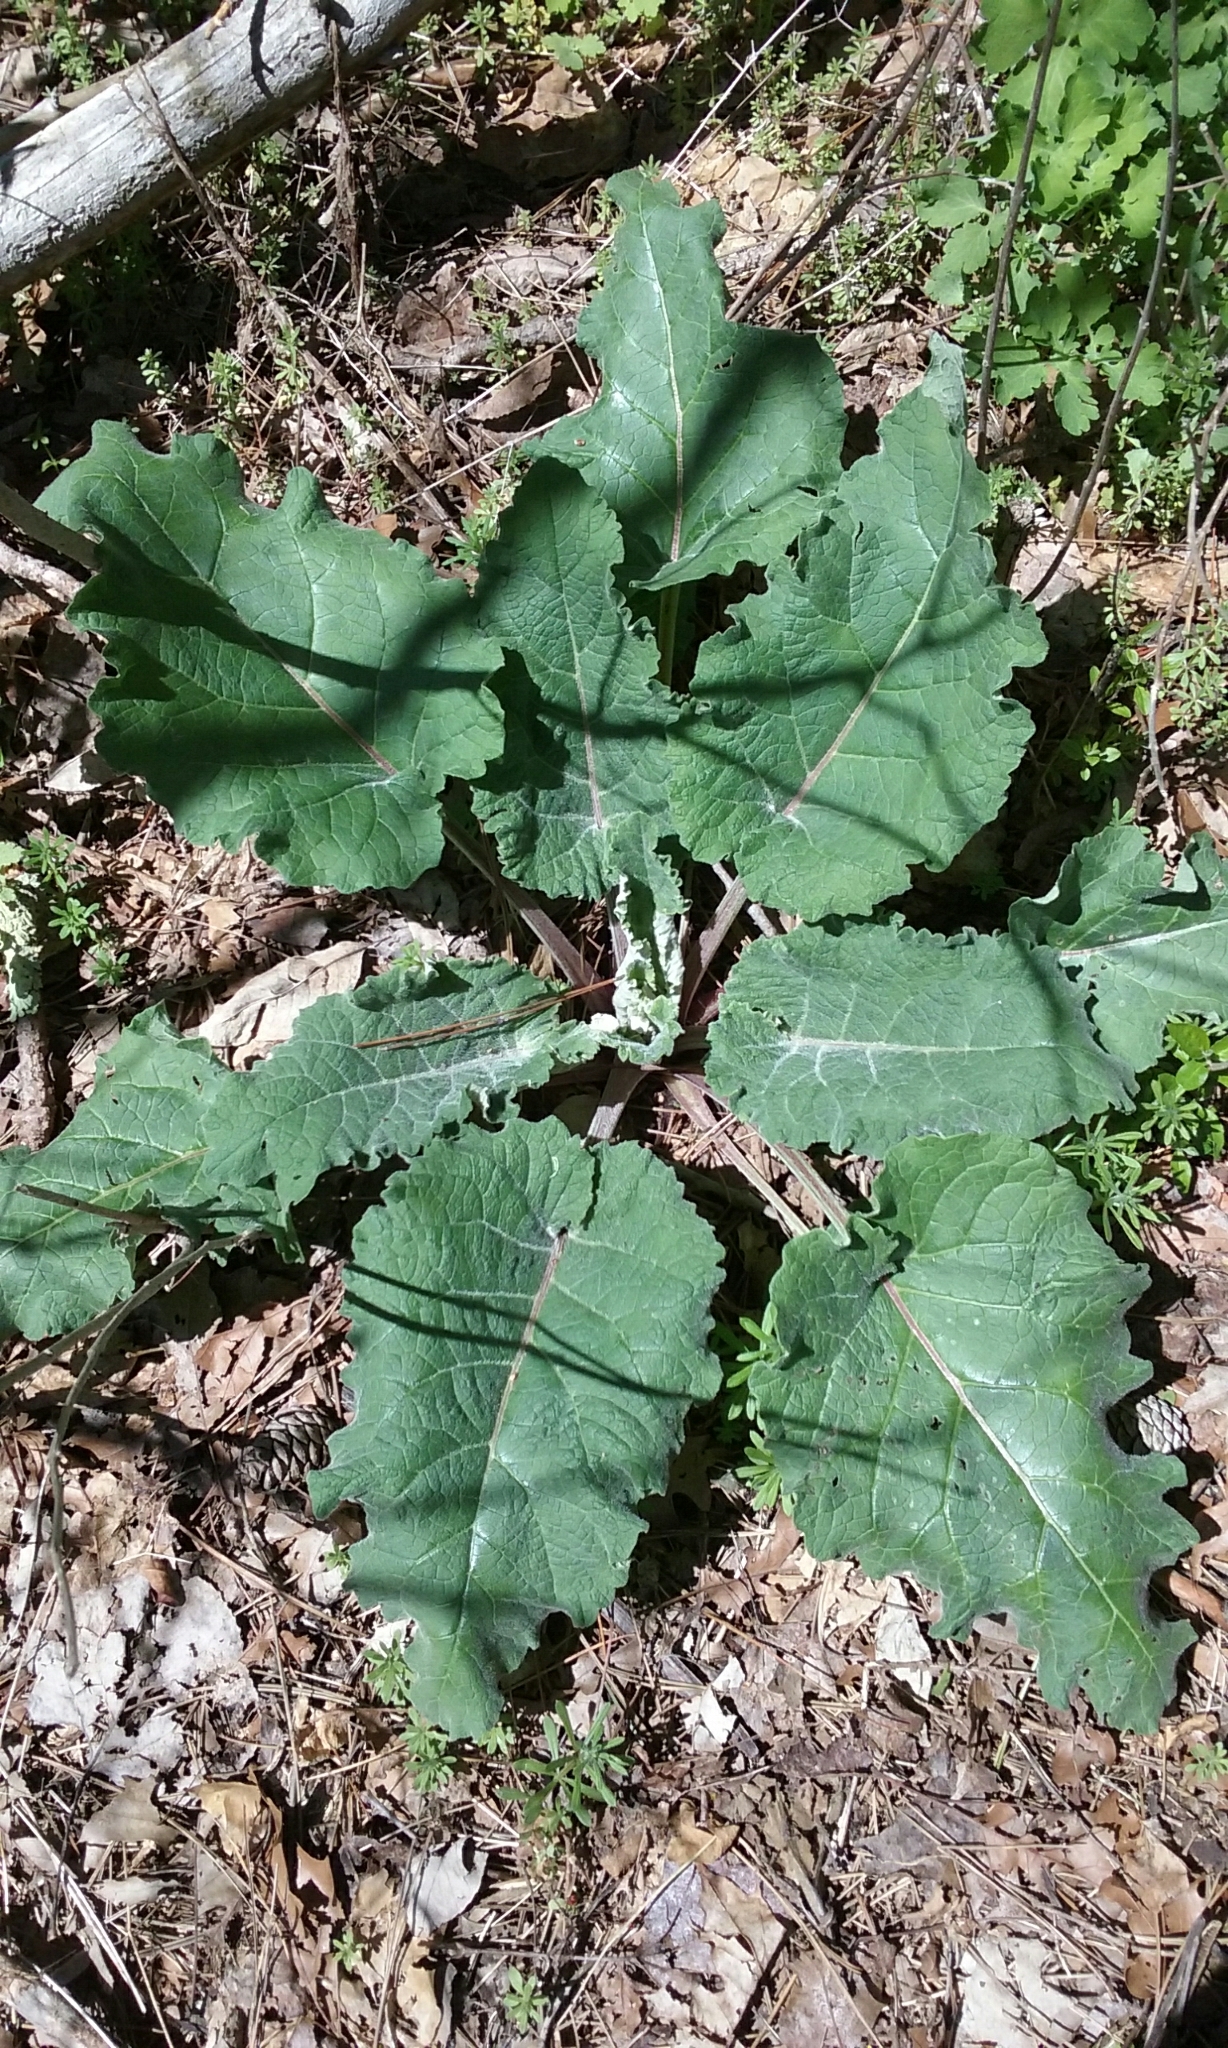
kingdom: Plantae
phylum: Tracheophyta
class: Magnoliopsida
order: Asterales
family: Asteraceae
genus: Arctium
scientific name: Arctium
